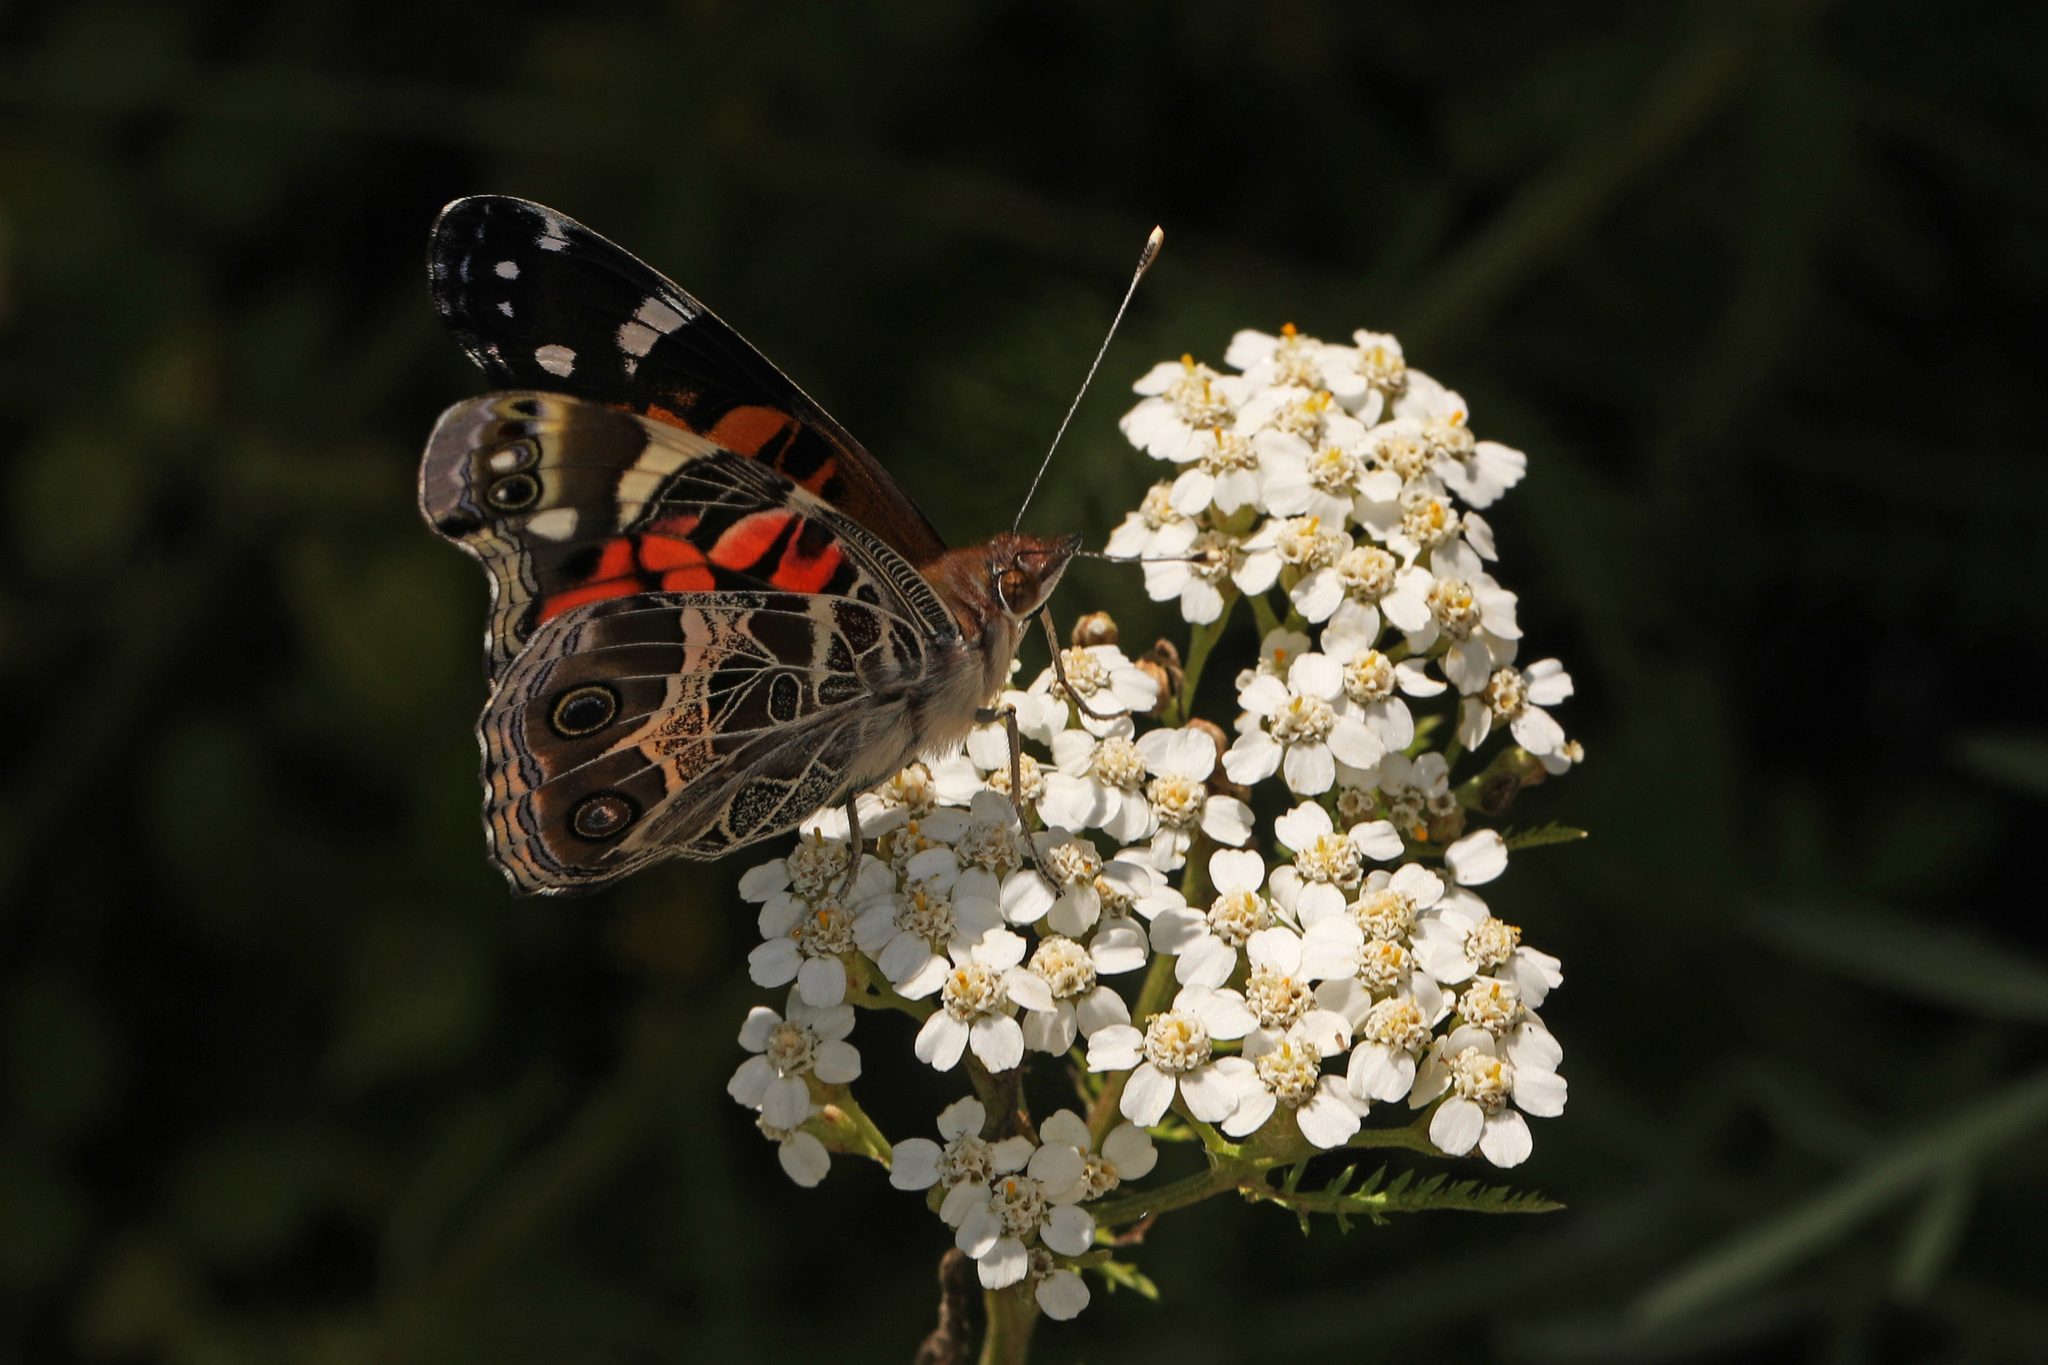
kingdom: Animalia
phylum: Arthropoda
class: Insecta
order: Lepidoptera
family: Nymphalidae
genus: Vanessa
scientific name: Vanessa virginiensis
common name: American lady
